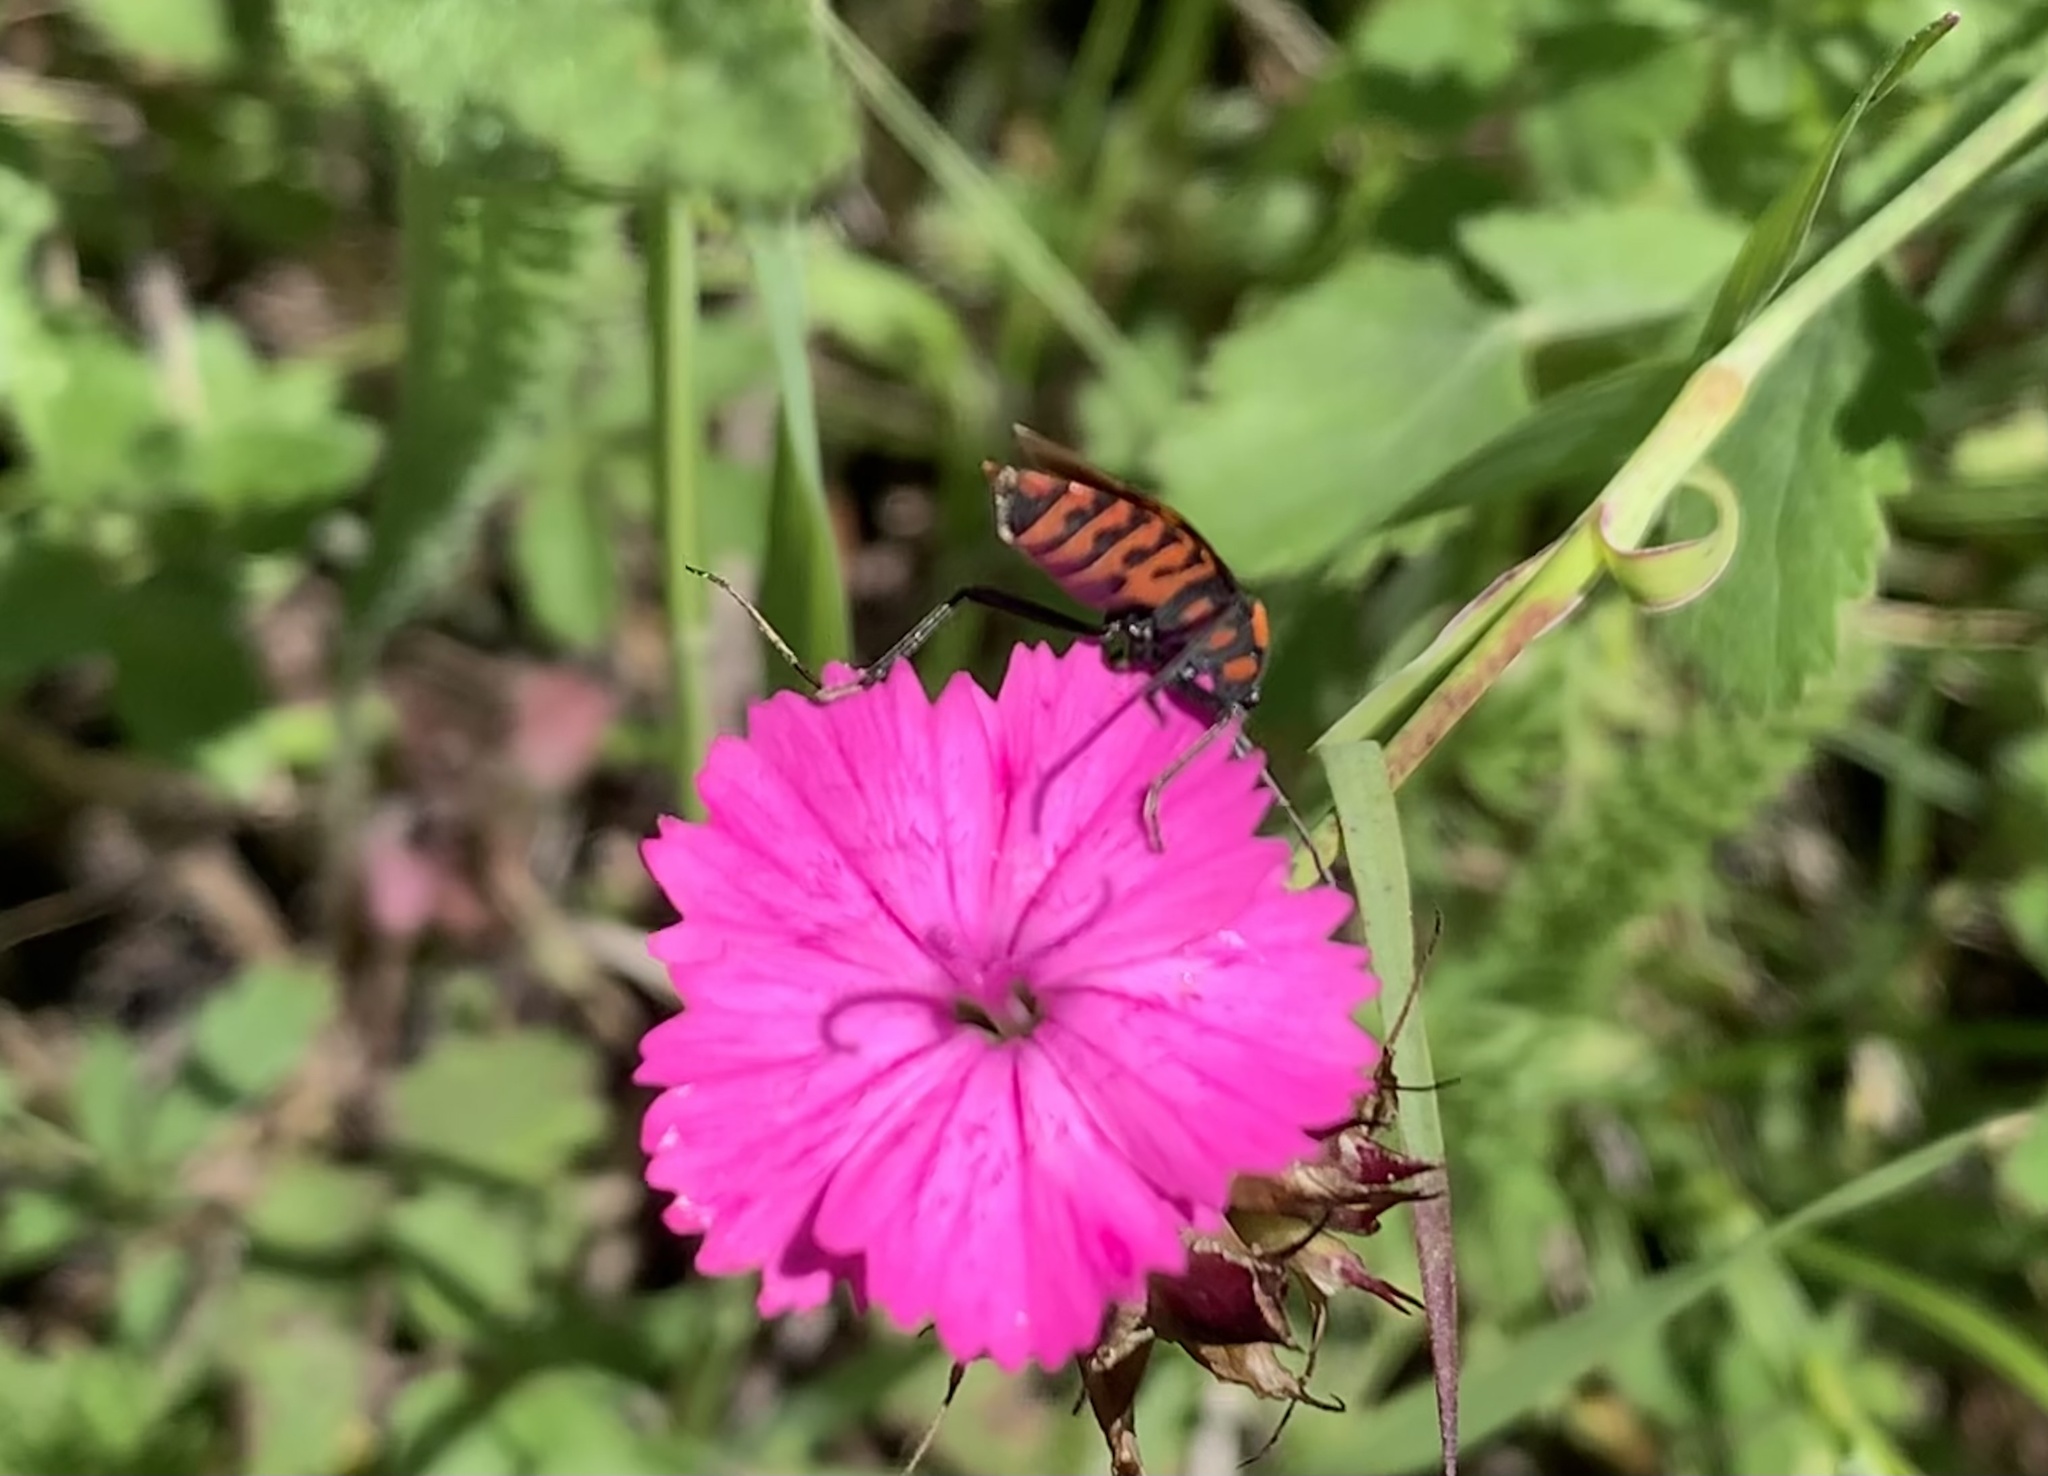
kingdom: Animalia
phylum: Arthropoda
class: Insecta
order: Hemiptera
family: Lygaeidae
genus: Spilostethus
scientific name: Spilostethus saxatilis
